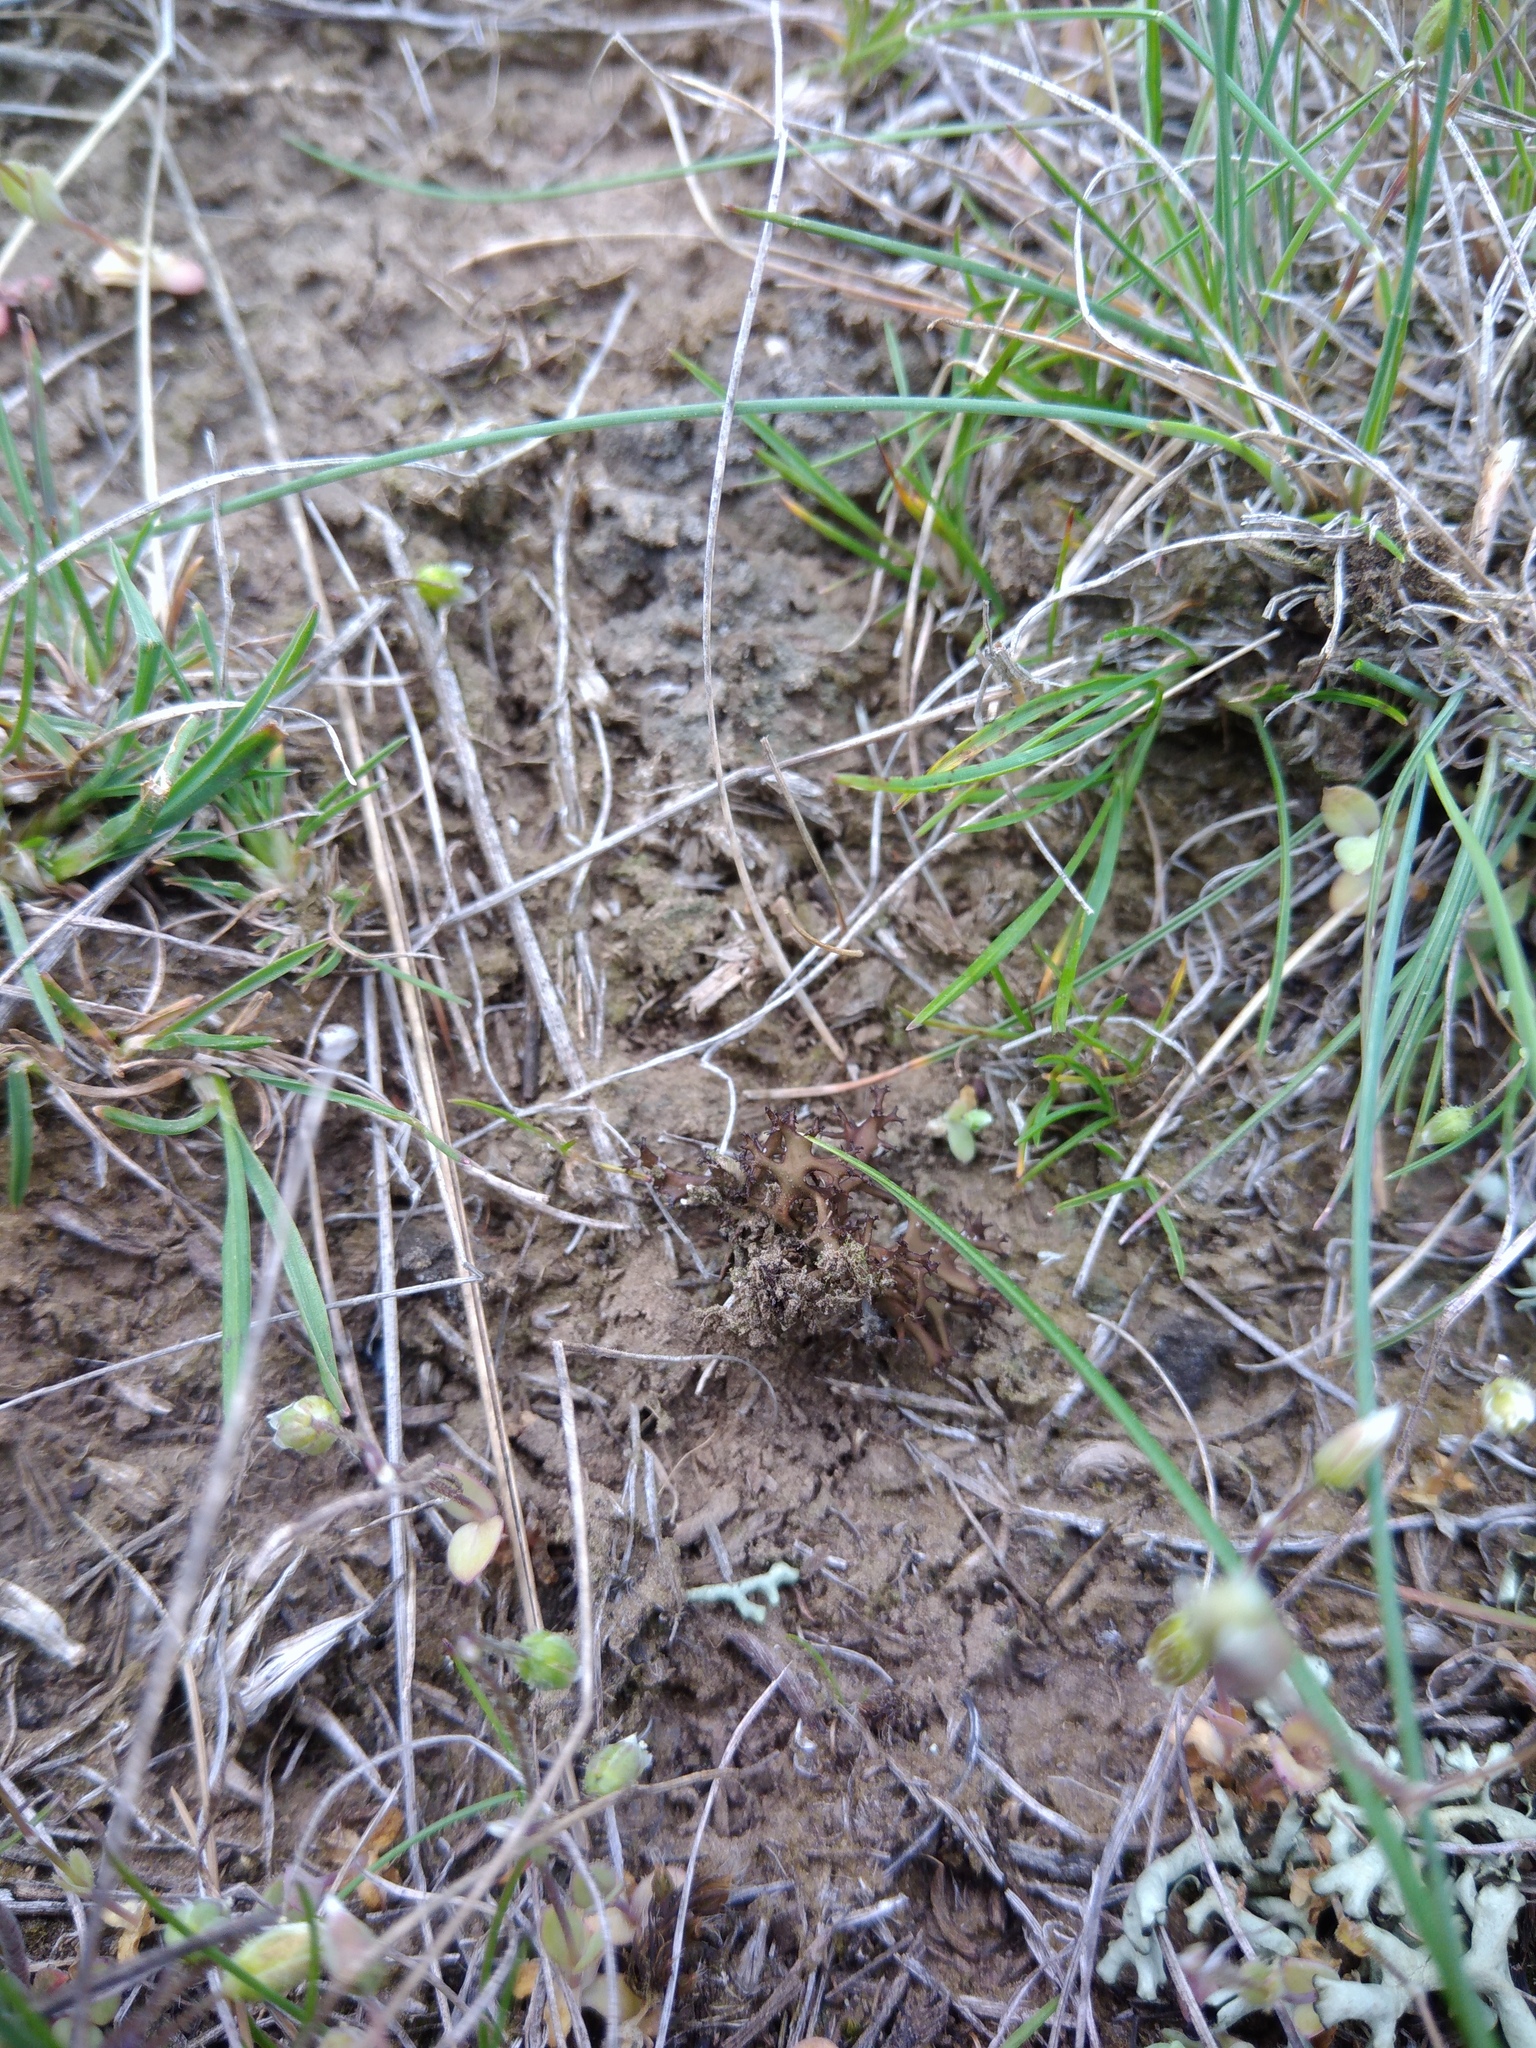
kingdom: Fungi
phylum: Ascomycota
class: Lecanoromycetes
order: Lecanorales
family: Parmeliaceae
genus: Cetraria
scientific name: Cetraria aculeata
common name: Spiny heath lichen
